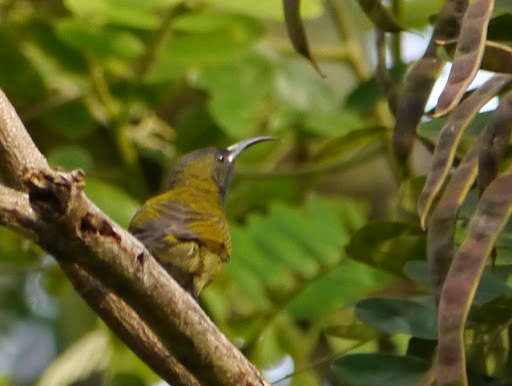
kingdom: Animalia
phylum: Chordata
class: Aves
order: Passeriformes
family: Nectariniidae
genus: Anabathmis
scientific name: Anabathmis reichenbachii
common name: Reichenbach's sunbird
